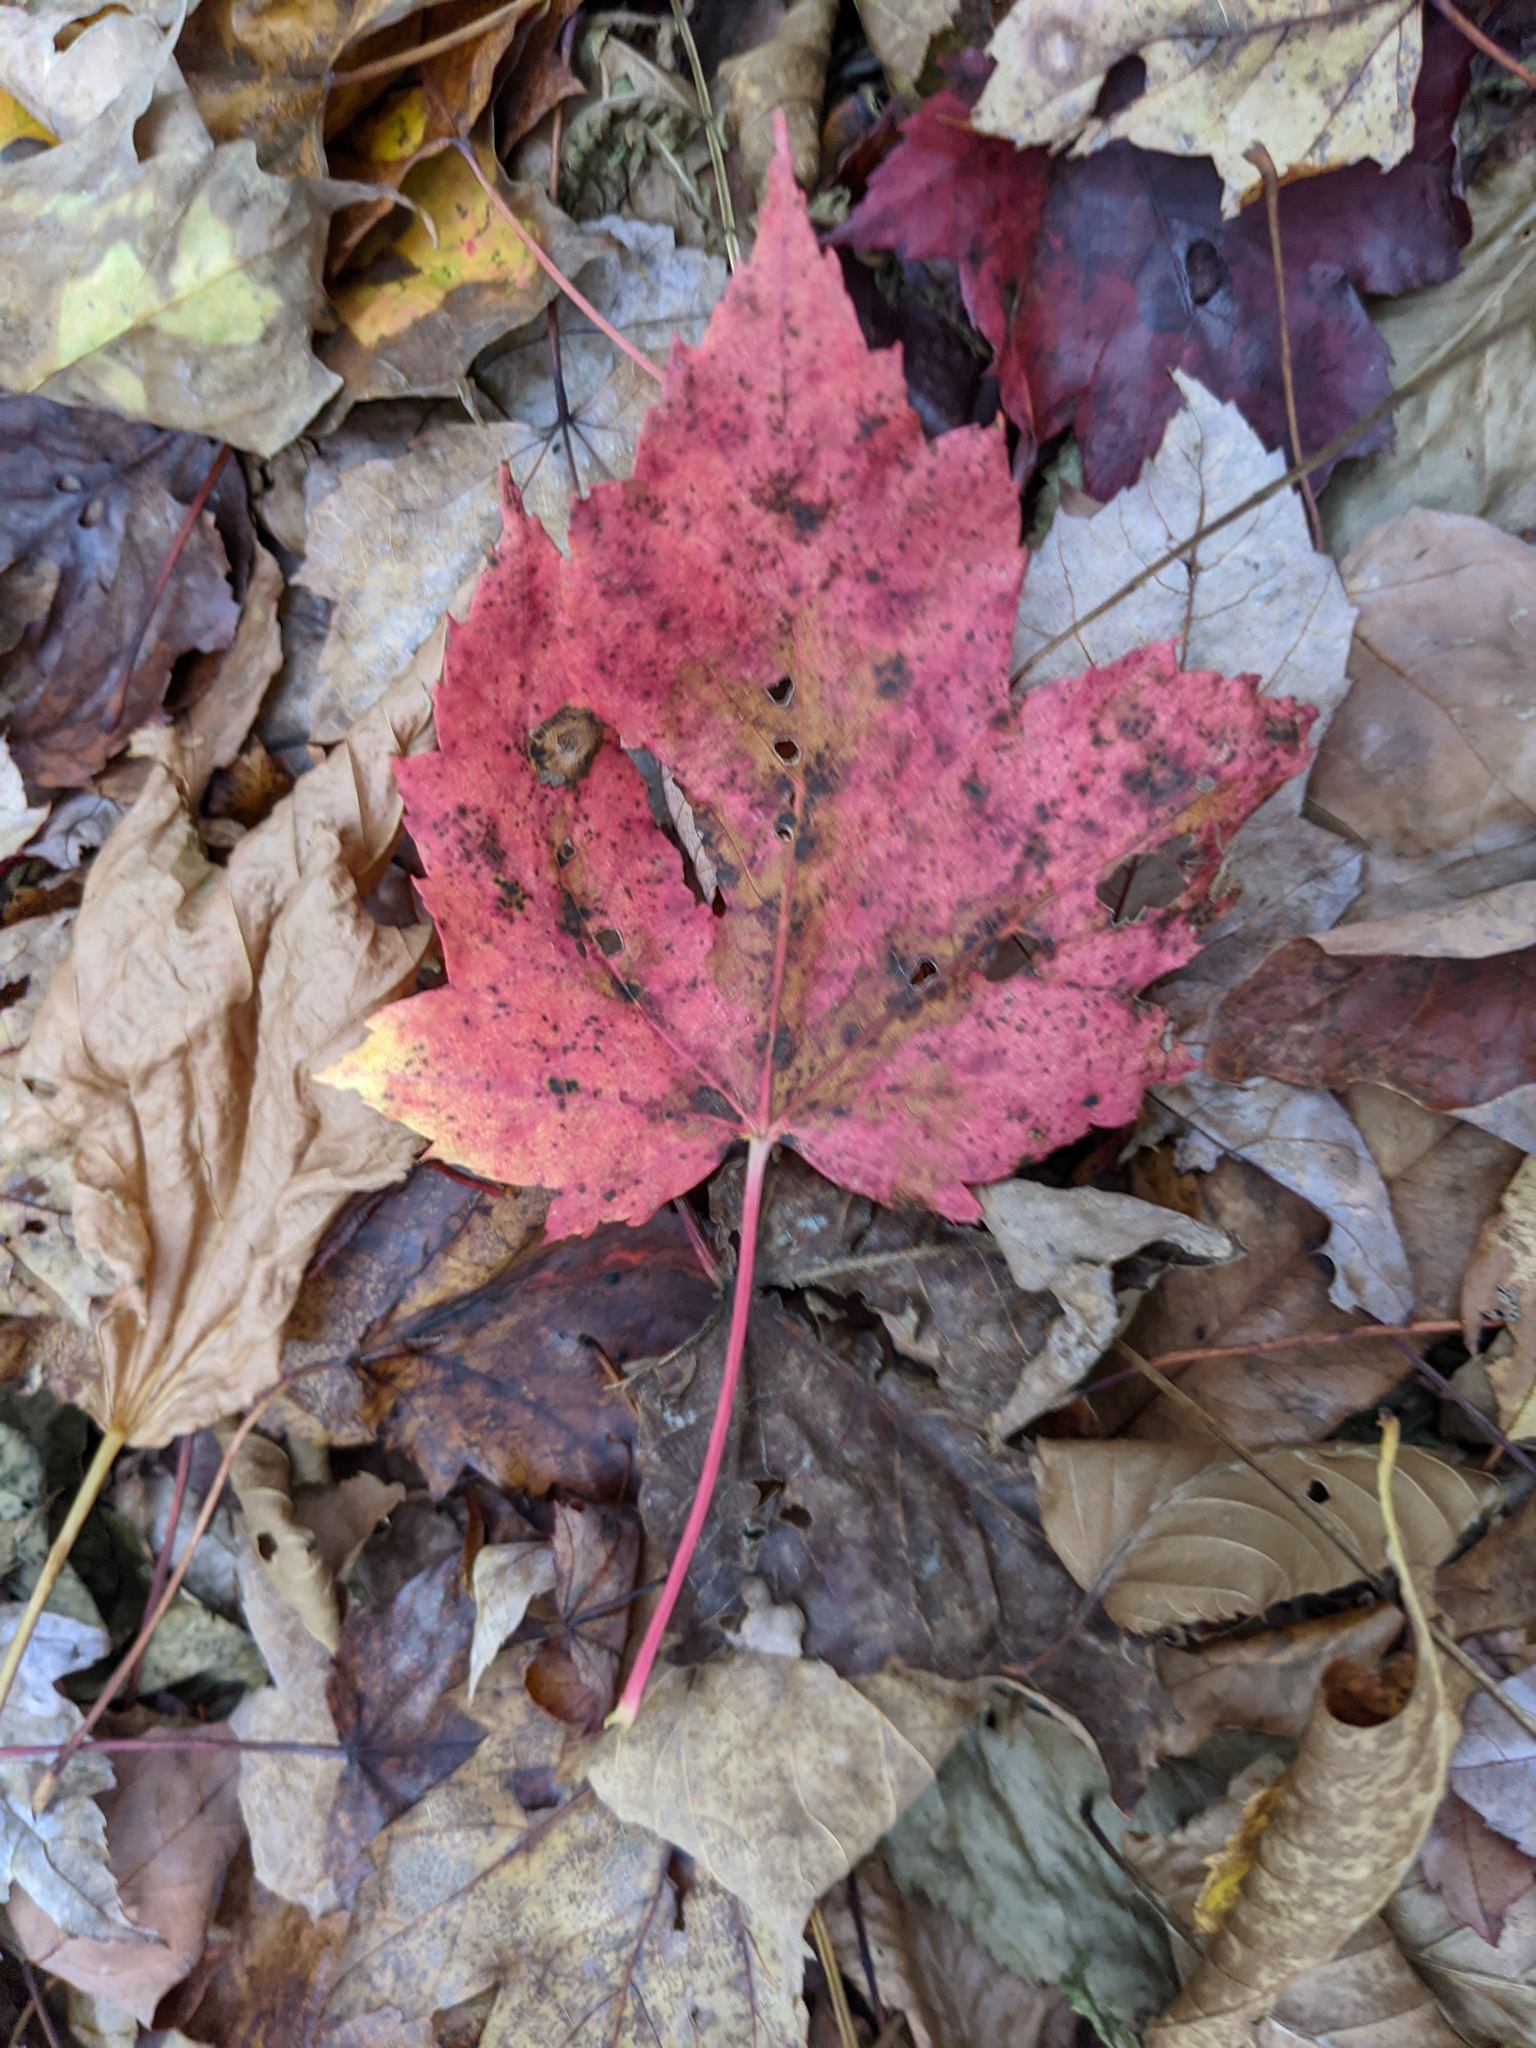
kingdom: Plantae
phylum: Tracheophyta
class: Magnoliopsida
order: Sapindales
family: Sapindaceae
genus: Acer
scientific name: Acer rubrum
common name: Red maple
